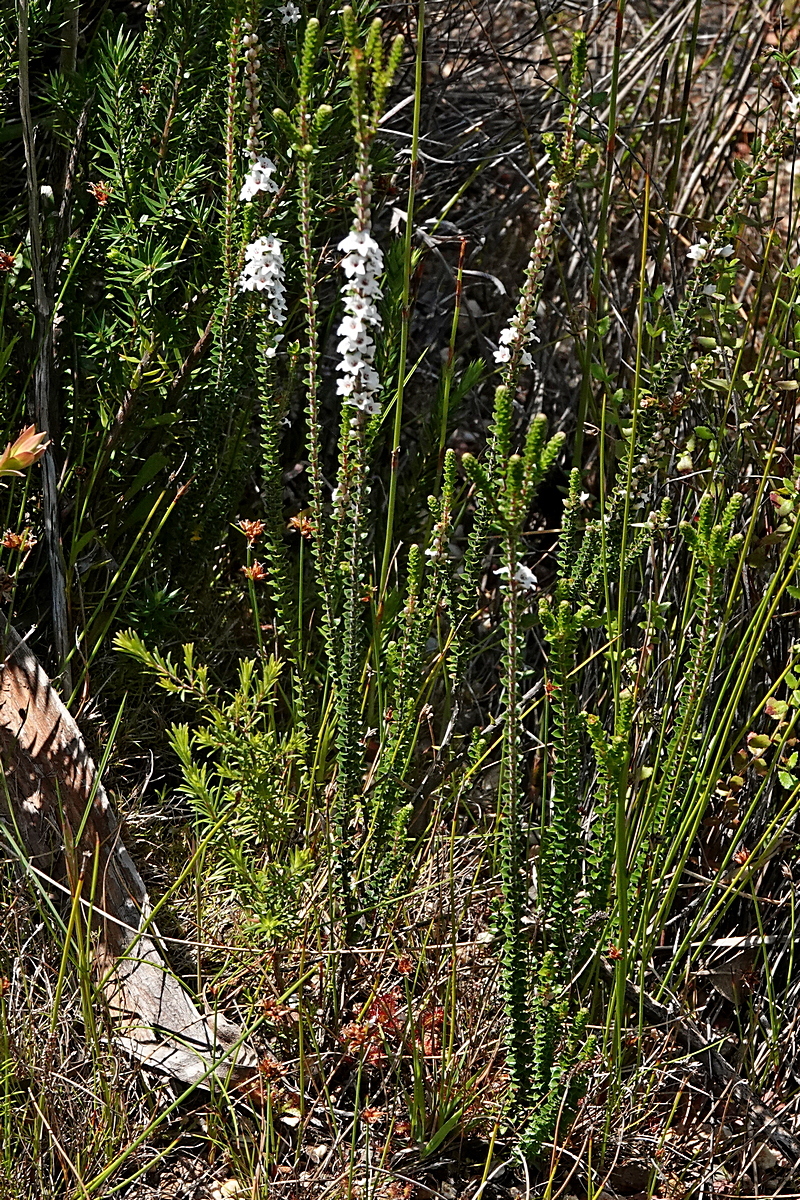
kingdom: Plantae
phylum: Tracheophyta
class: Magnoliopsida
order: Ericales
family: Ericaceae
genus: Epacris
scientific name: Epacris microphylla
